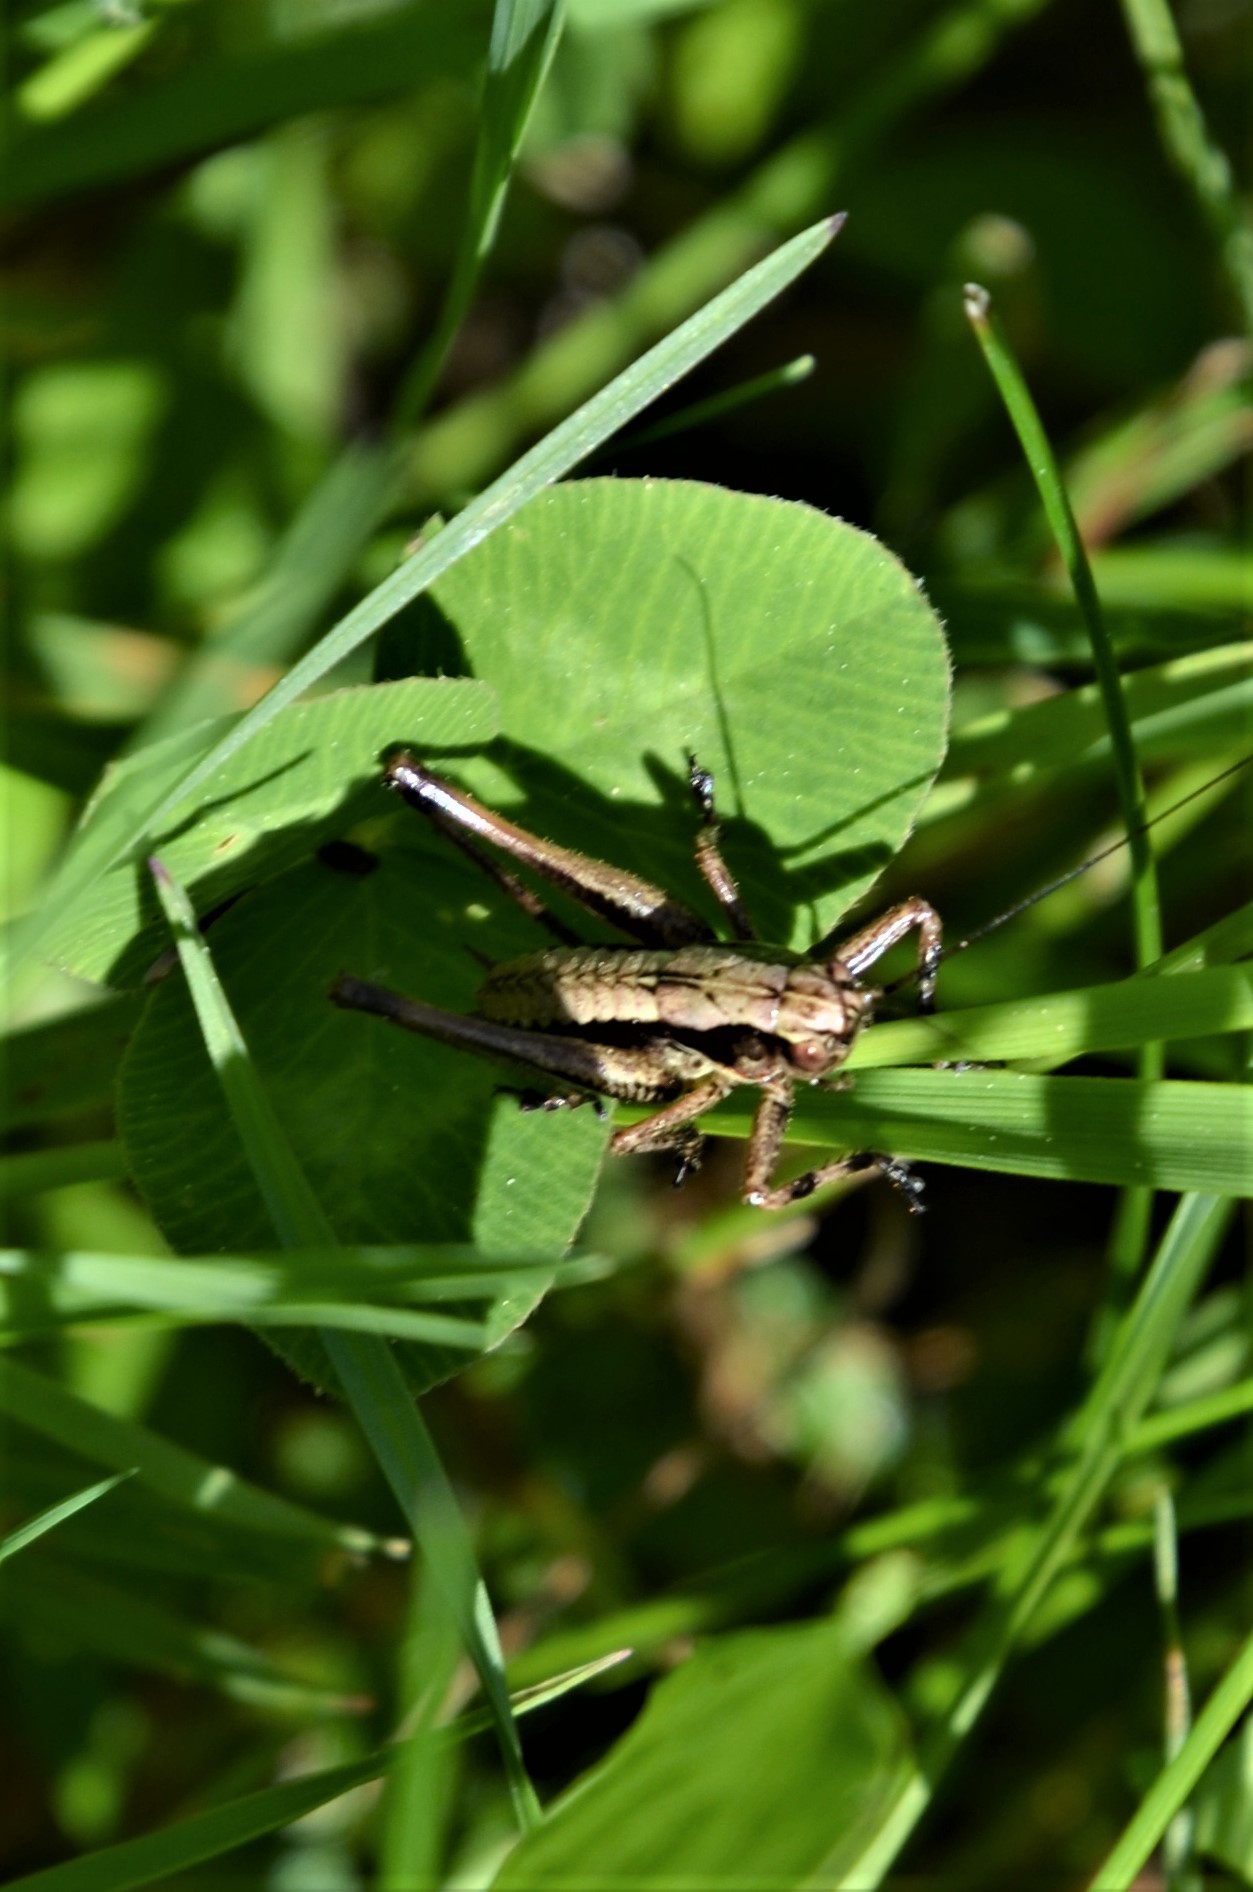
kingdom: Animalia
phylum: Arthropoda
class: Insecta
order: Orthoptera
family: Tettigoniidae
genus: Pholidoptera
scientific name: Pholidoptera griseoaptera
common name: Dark bush-cricket
